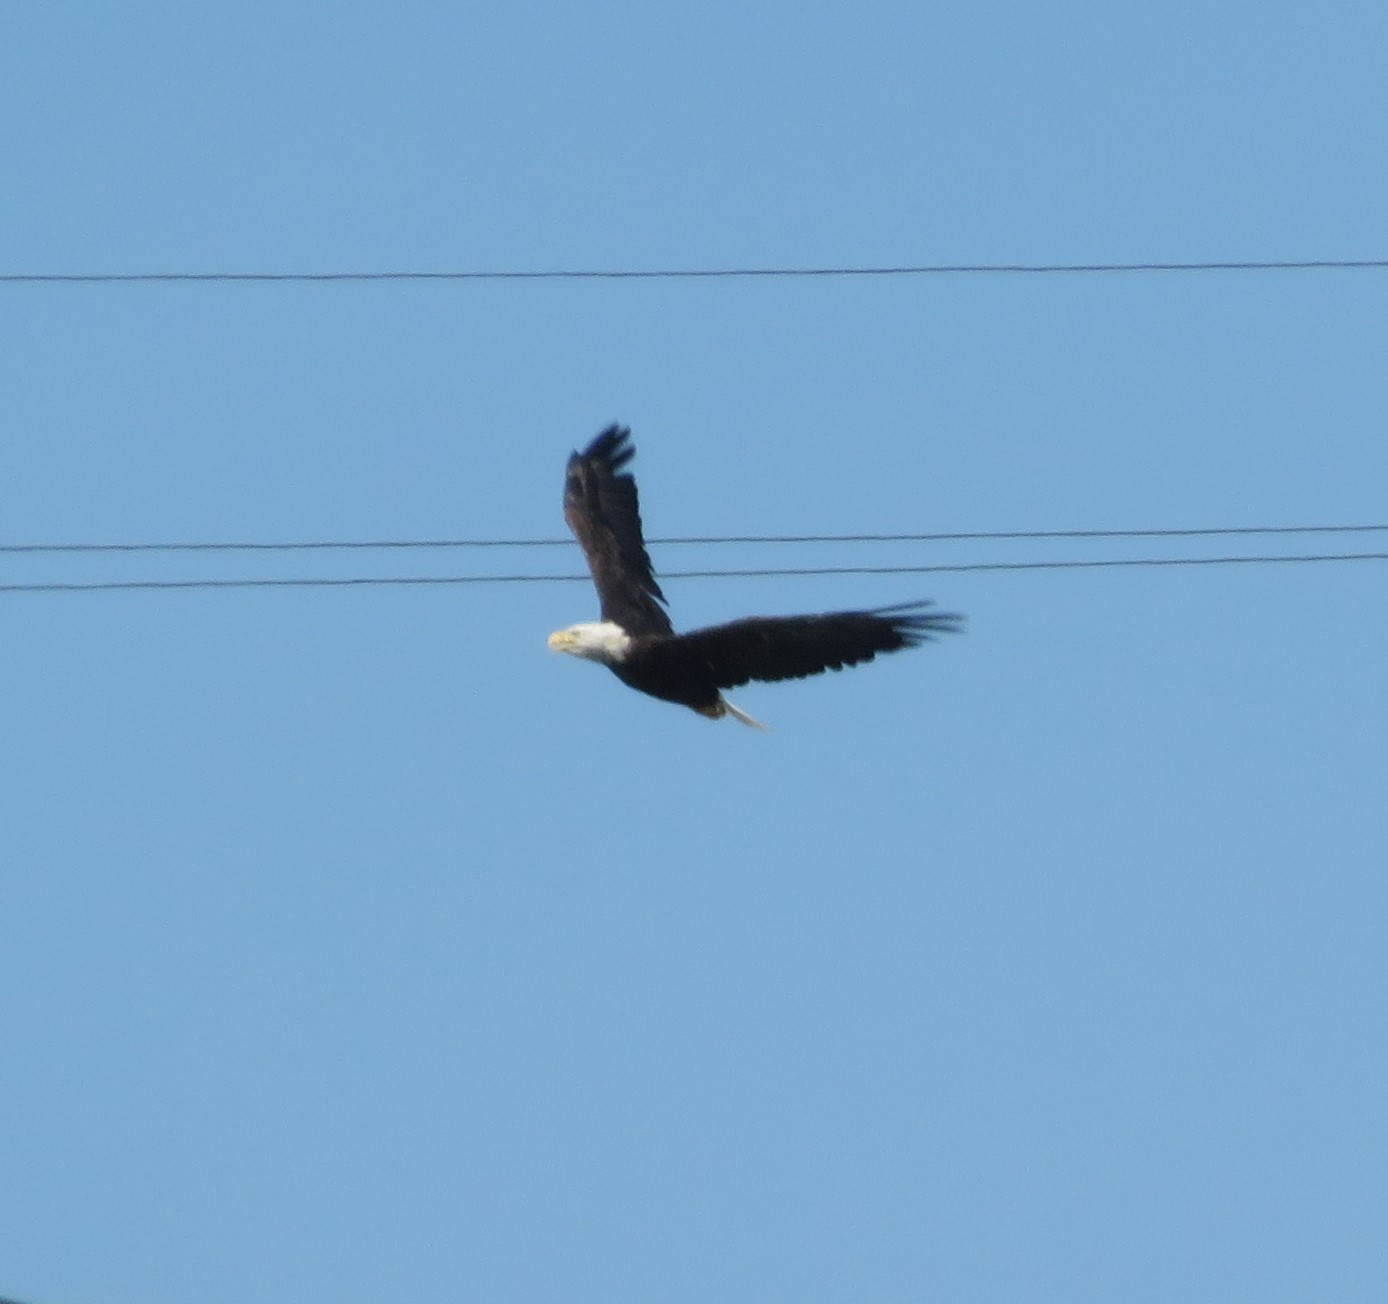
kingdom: Animalia
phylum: Chordata
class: Aves
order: Accipitriformes
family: Accipitridae
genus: Haliaeetus
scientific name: Haliaeetus leucocephalus
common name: Bald eagle
